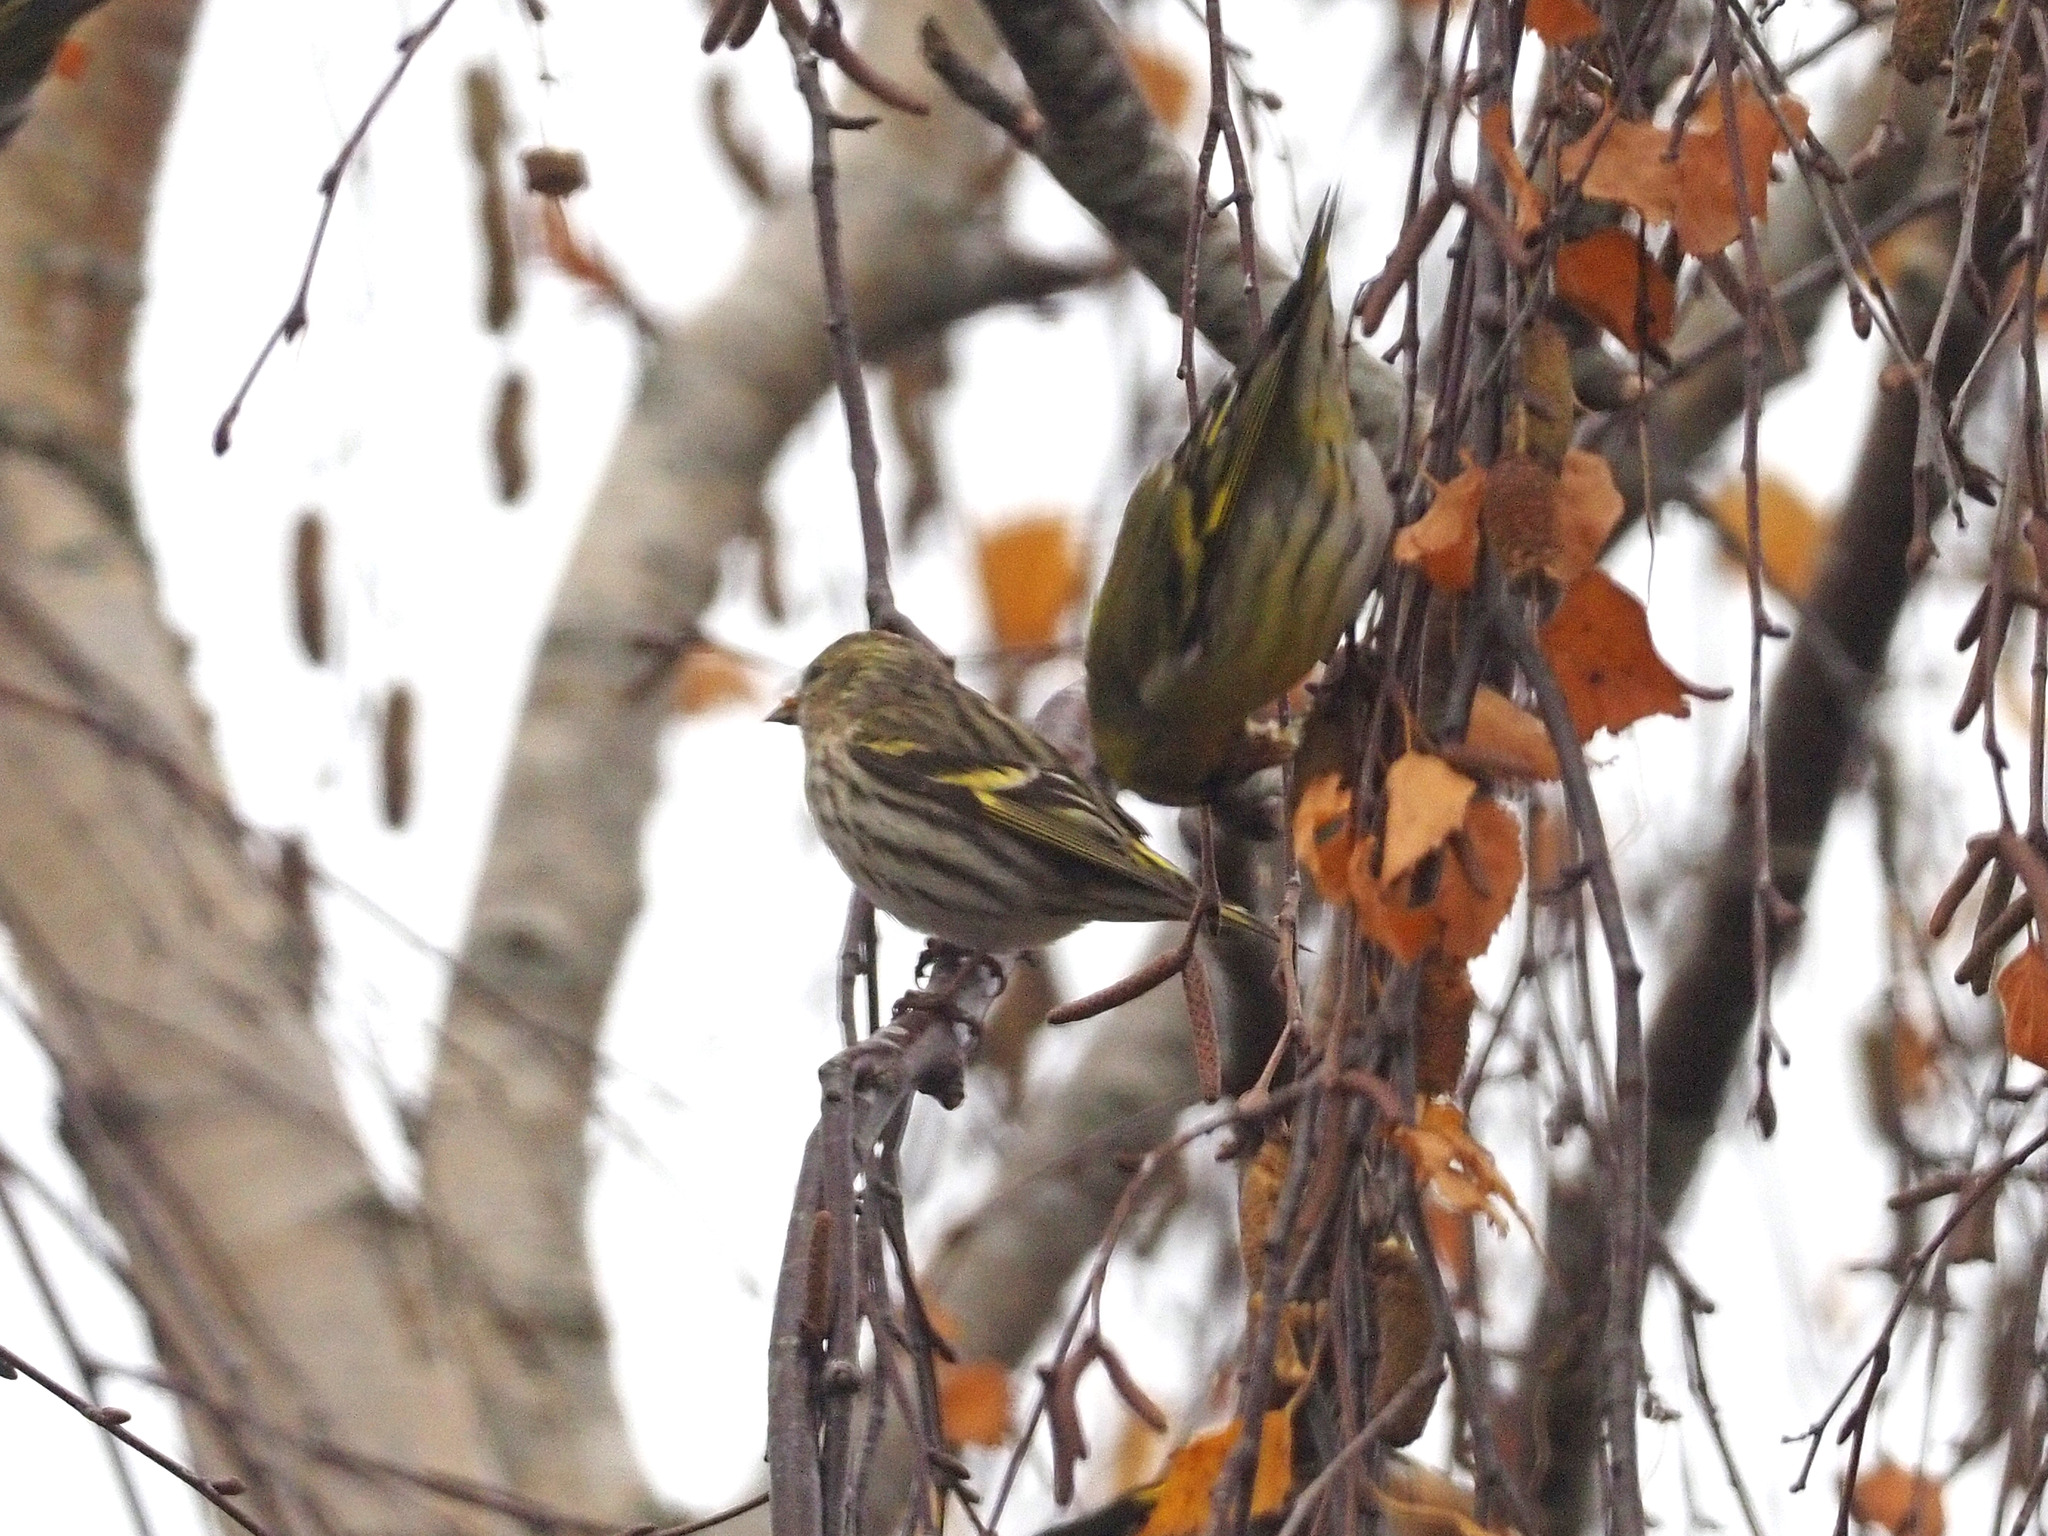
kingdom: Animalia
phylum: Chordata
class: Aves
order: Passeriformes
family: Fringillidae
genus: Spinus
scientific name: Spinus spinus
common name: Eurasian siskin
